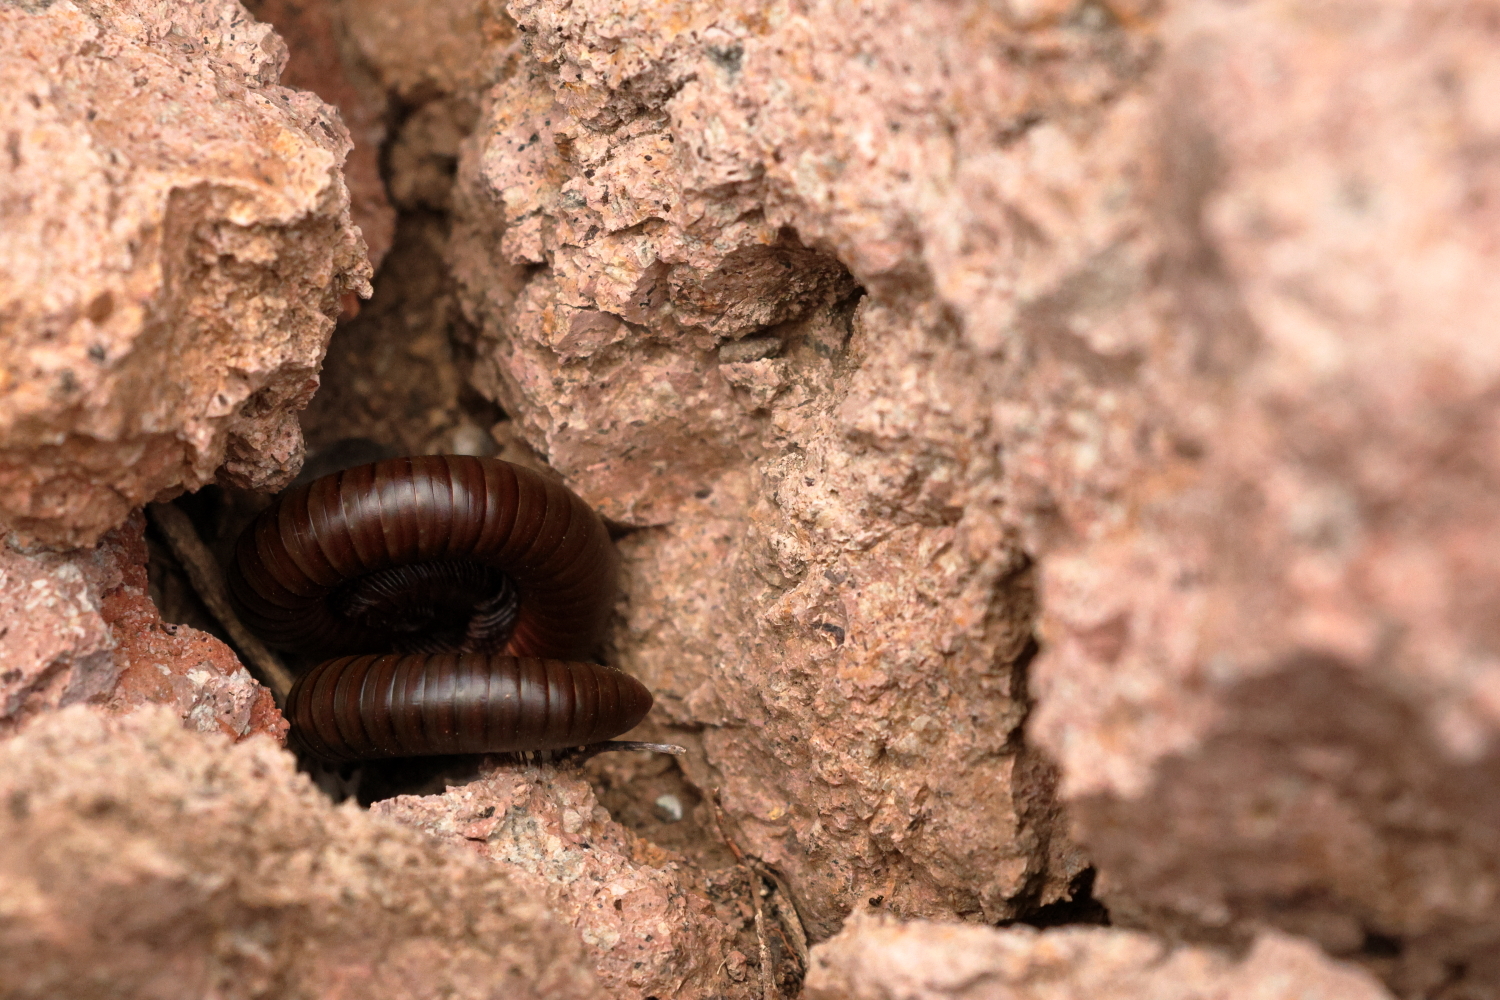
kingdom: Animalia
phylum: Arthropoda
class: Diplopoda
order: Spirostreptida
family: Spirostreptidae
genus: Orthoporus
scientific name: Orthoporus ornatus
